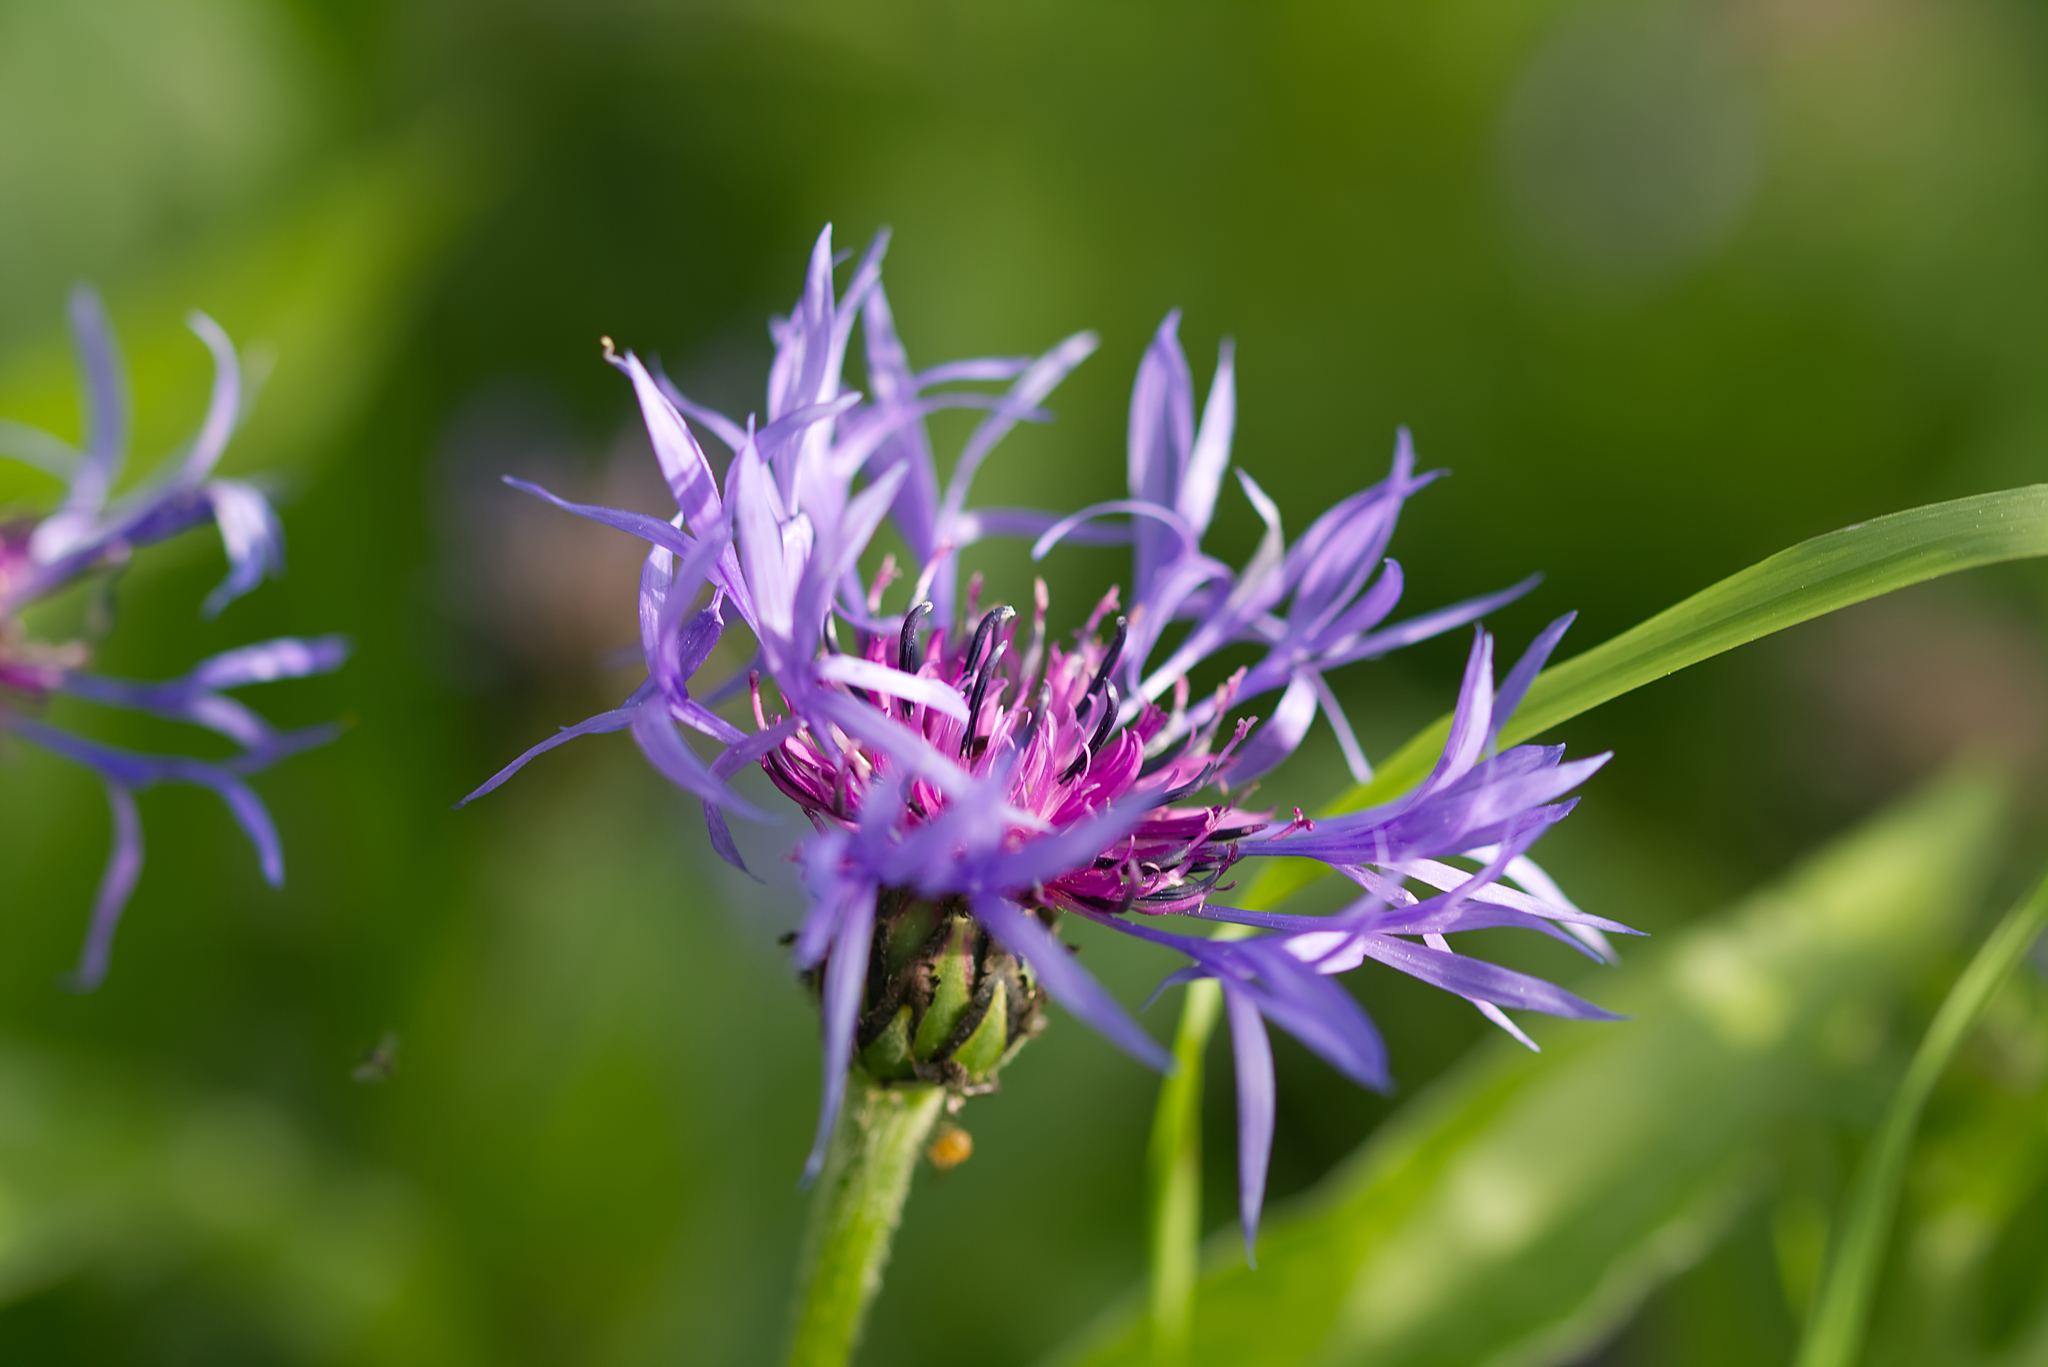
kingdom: Plantae
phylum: Tracheophyta
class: Magnoliopsida
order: Asterales
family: Asteraceae
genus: Centaurea
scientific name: Centaurea montana
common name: Perennial cornflower
